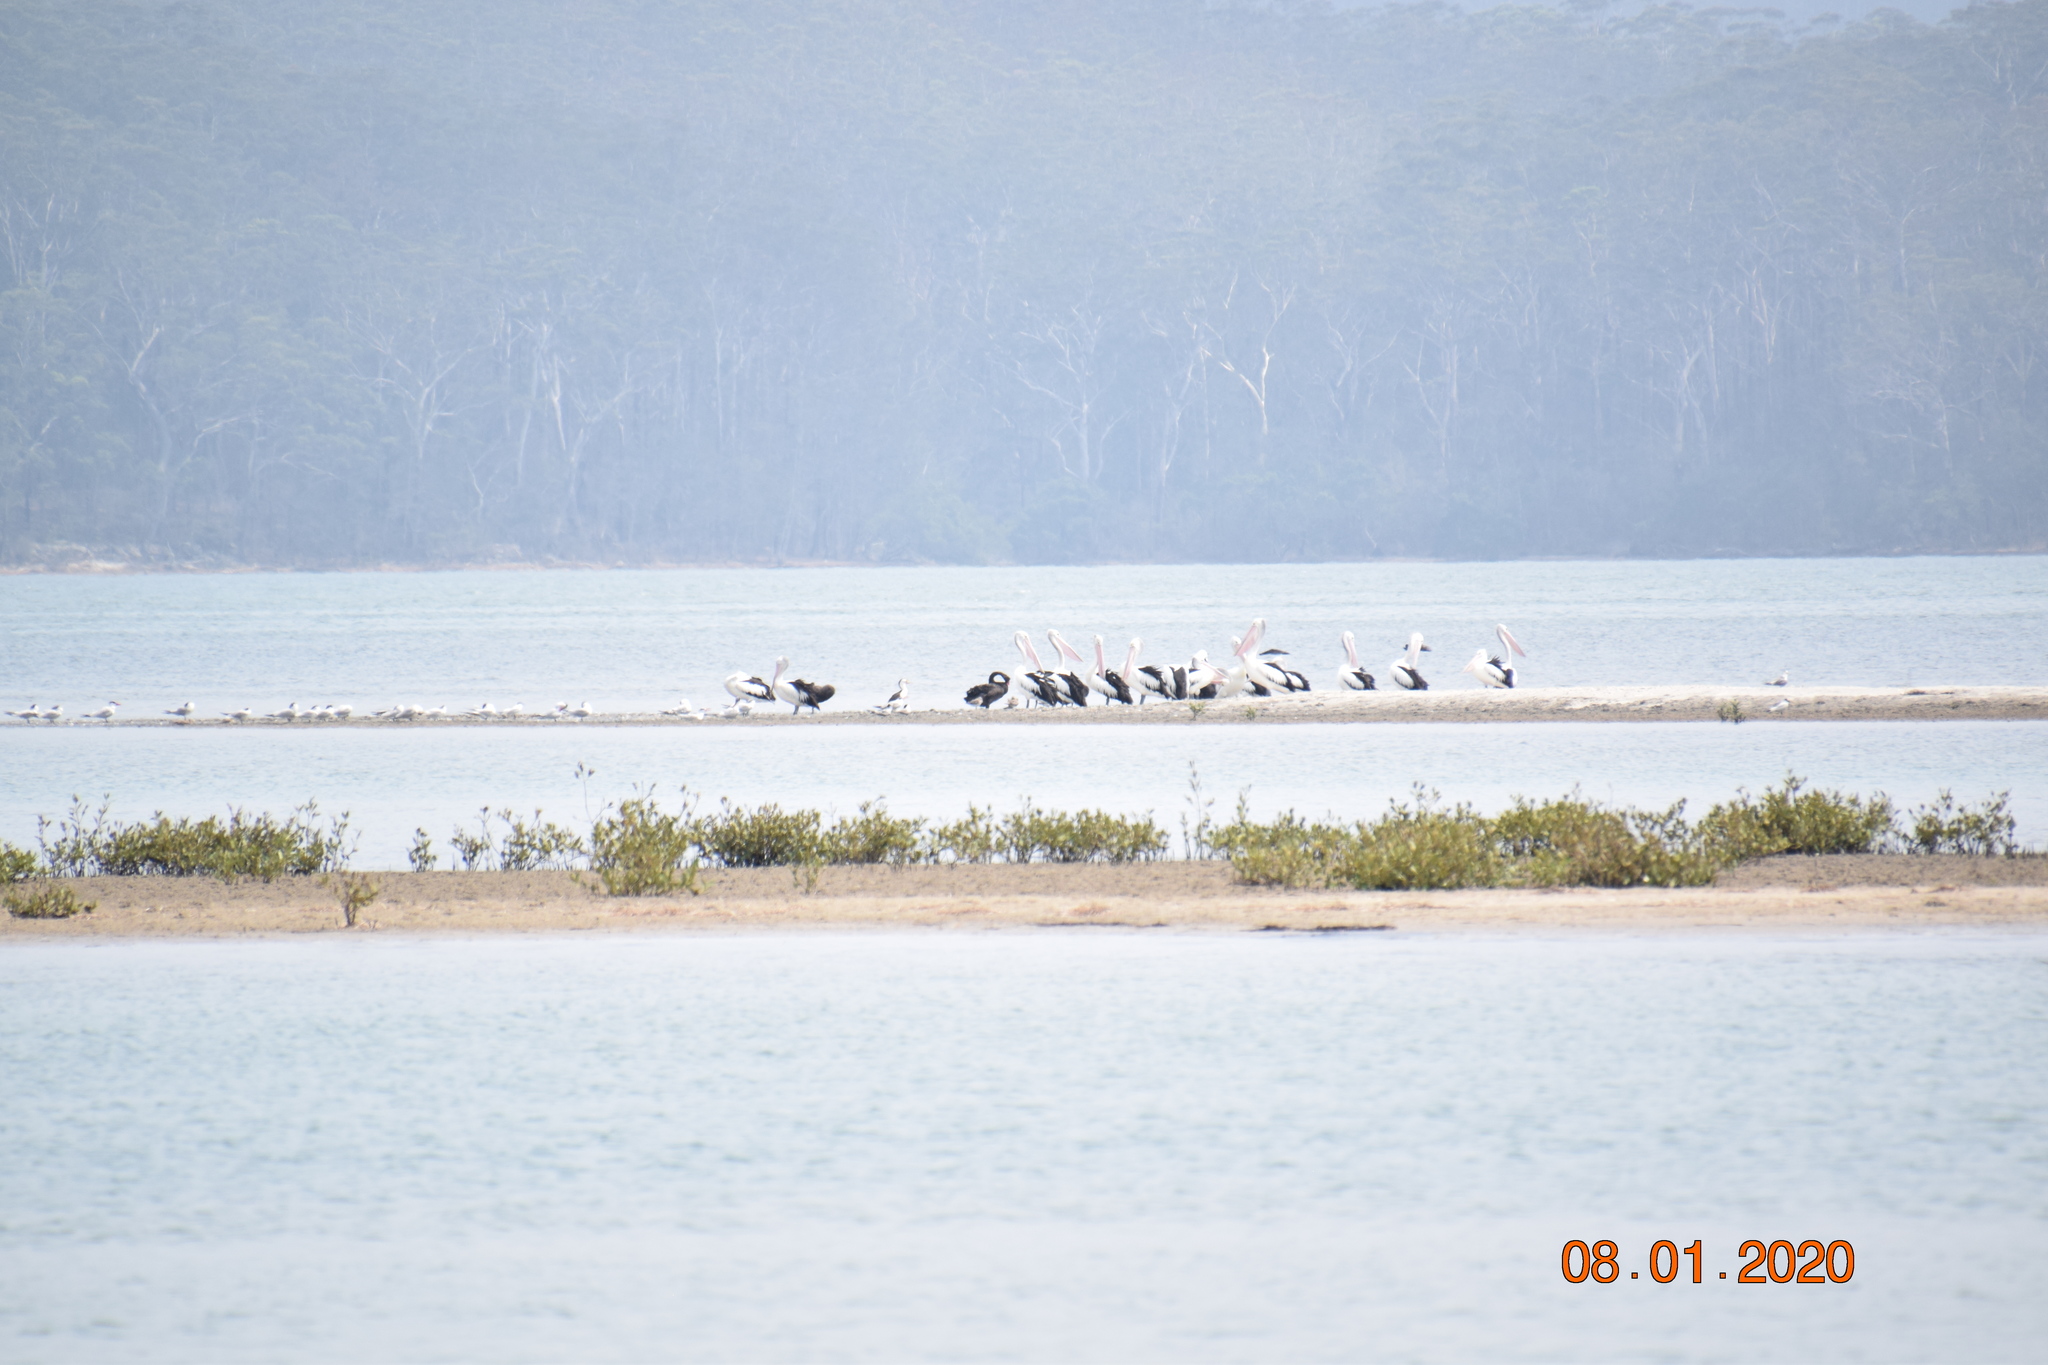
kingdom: Animalia
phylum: Chordata
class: Aves
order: Pelecaniformes
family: Pelecanidae
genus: Pelecanus
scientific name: Pelecanus conspicillatus
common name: Australian pelican
